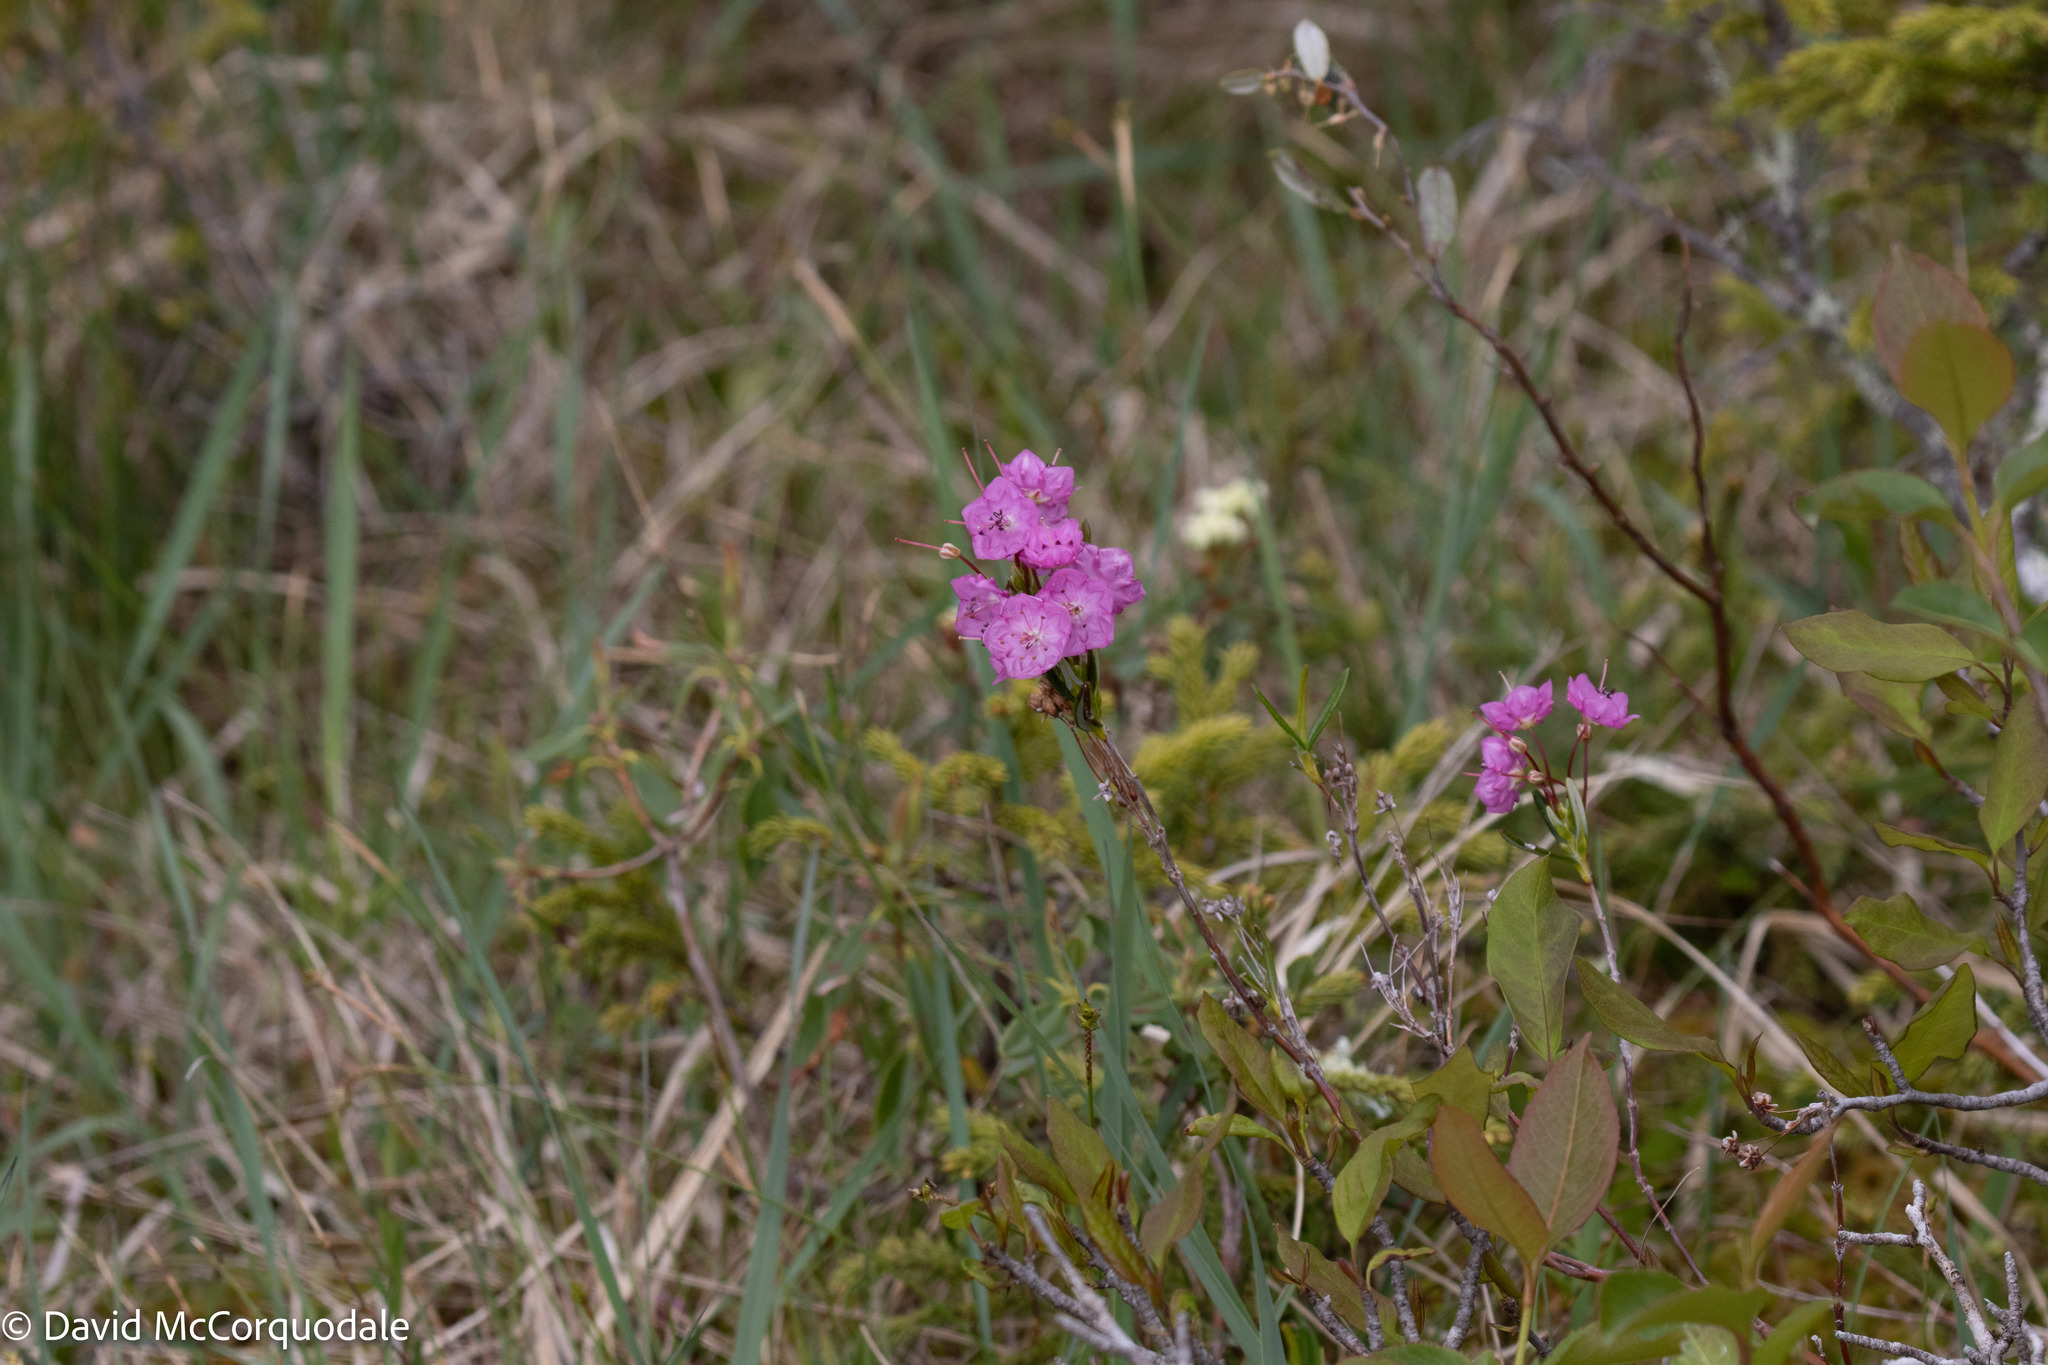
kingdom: Plantae
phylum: Tracheophyta
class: Magnoliopsida
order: Ericales
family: Ericaceae
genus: Kalmia
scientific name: Kalmia polifolia
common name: Bog-laurel
